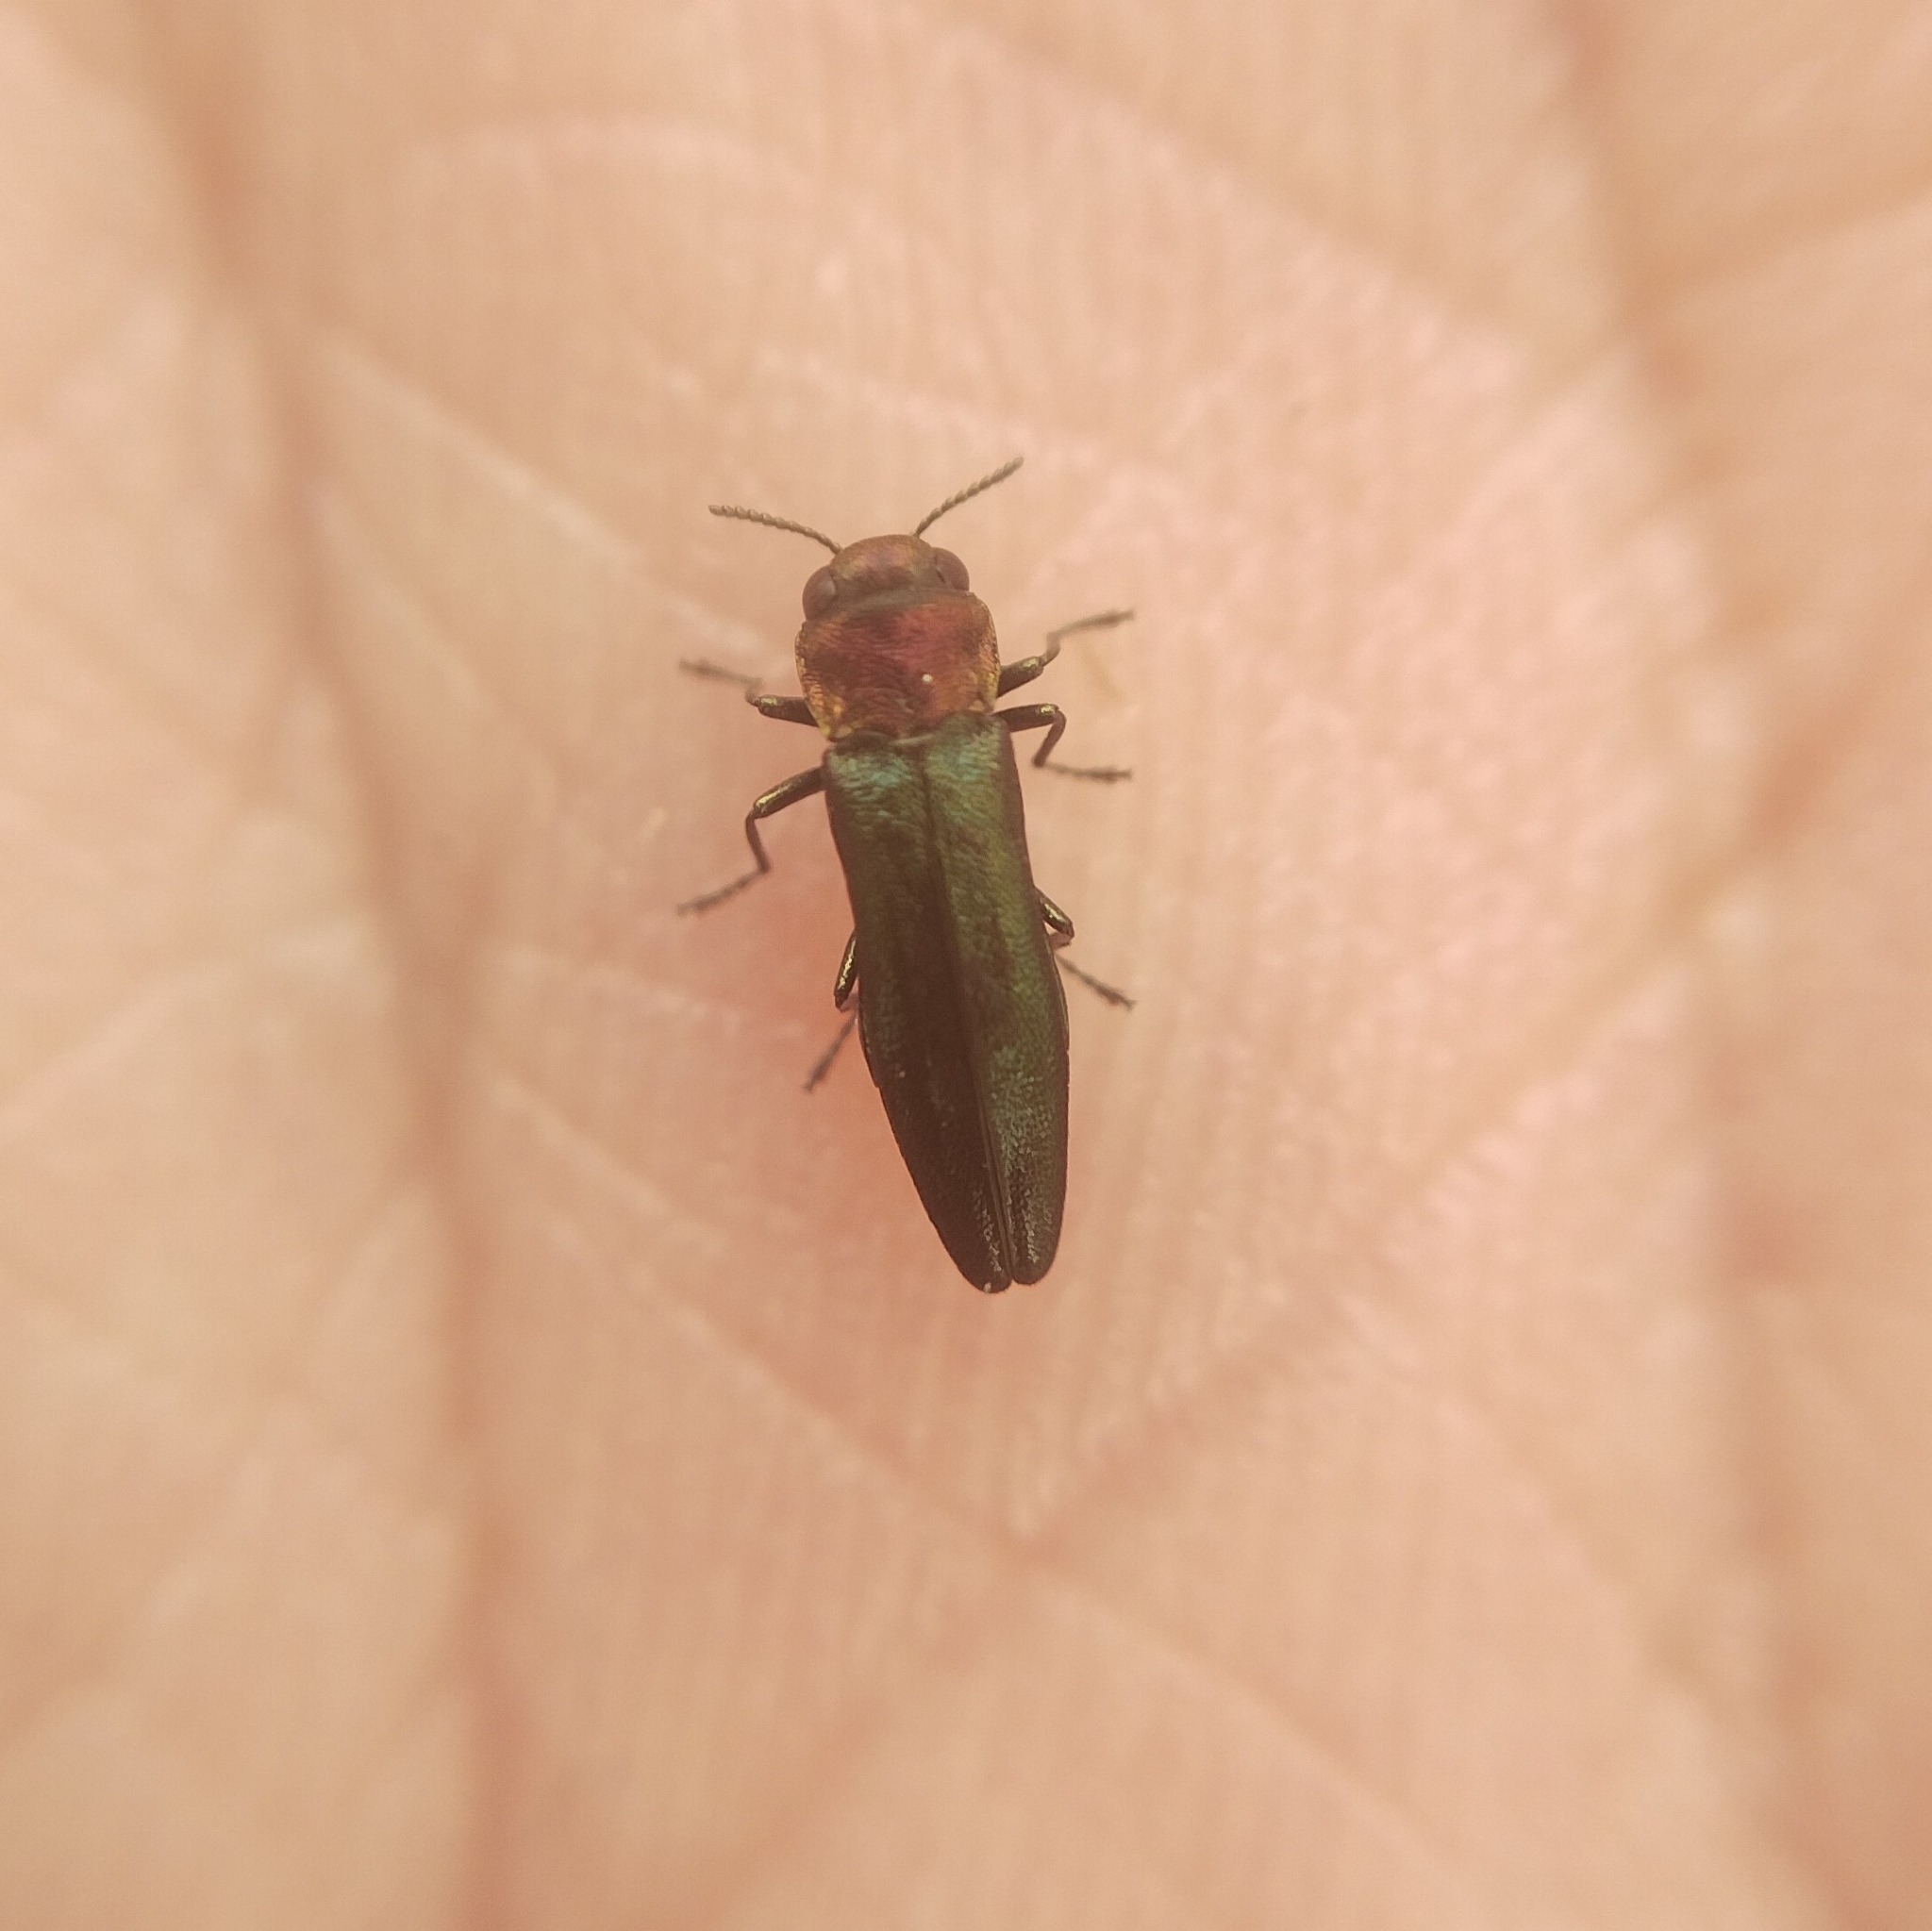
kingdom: Animalia
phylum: Arthropoda
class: Insecta
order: Coleoptera
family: Buprestidae
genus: Agrilus
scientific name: Agrilus pratensis
